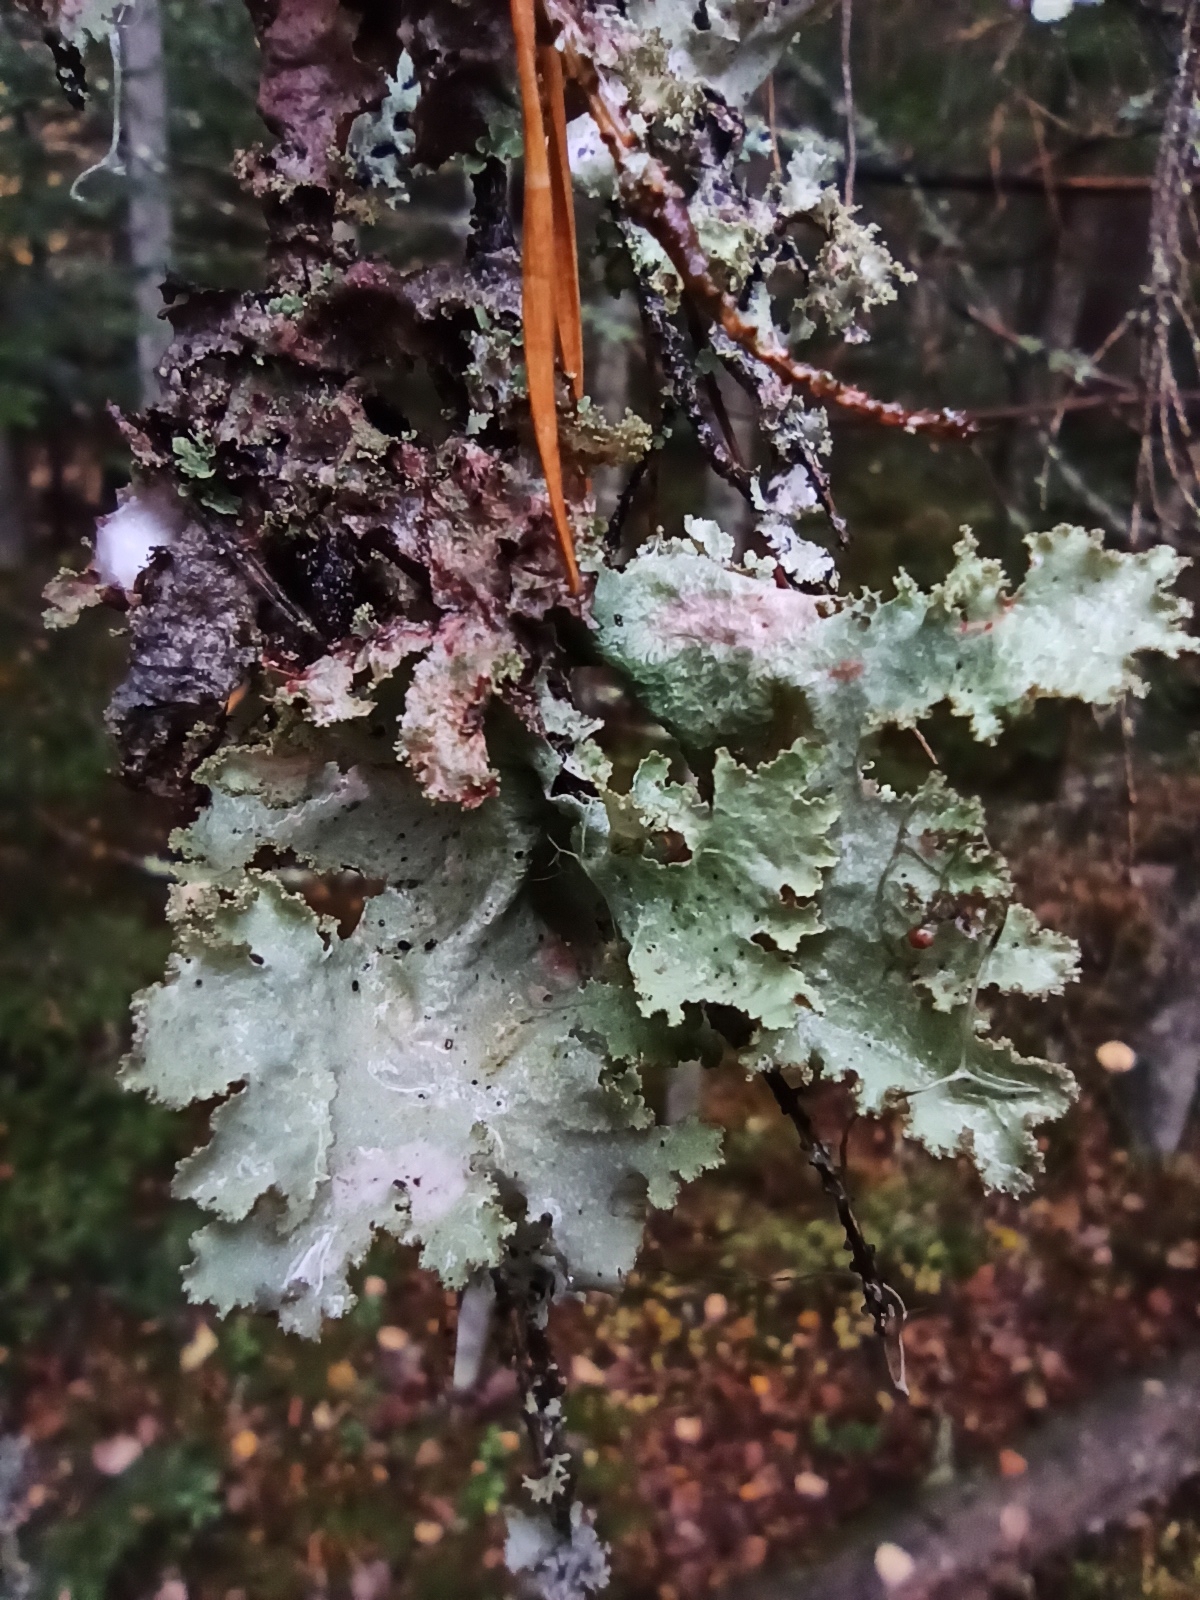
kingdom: Fungi
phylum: Ascomycota
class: Lecanoromycetes
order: Lecanorales
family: Parmeliaceae
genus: Platismatia
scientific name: Platismatia glauca
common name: Varied rag lichen
